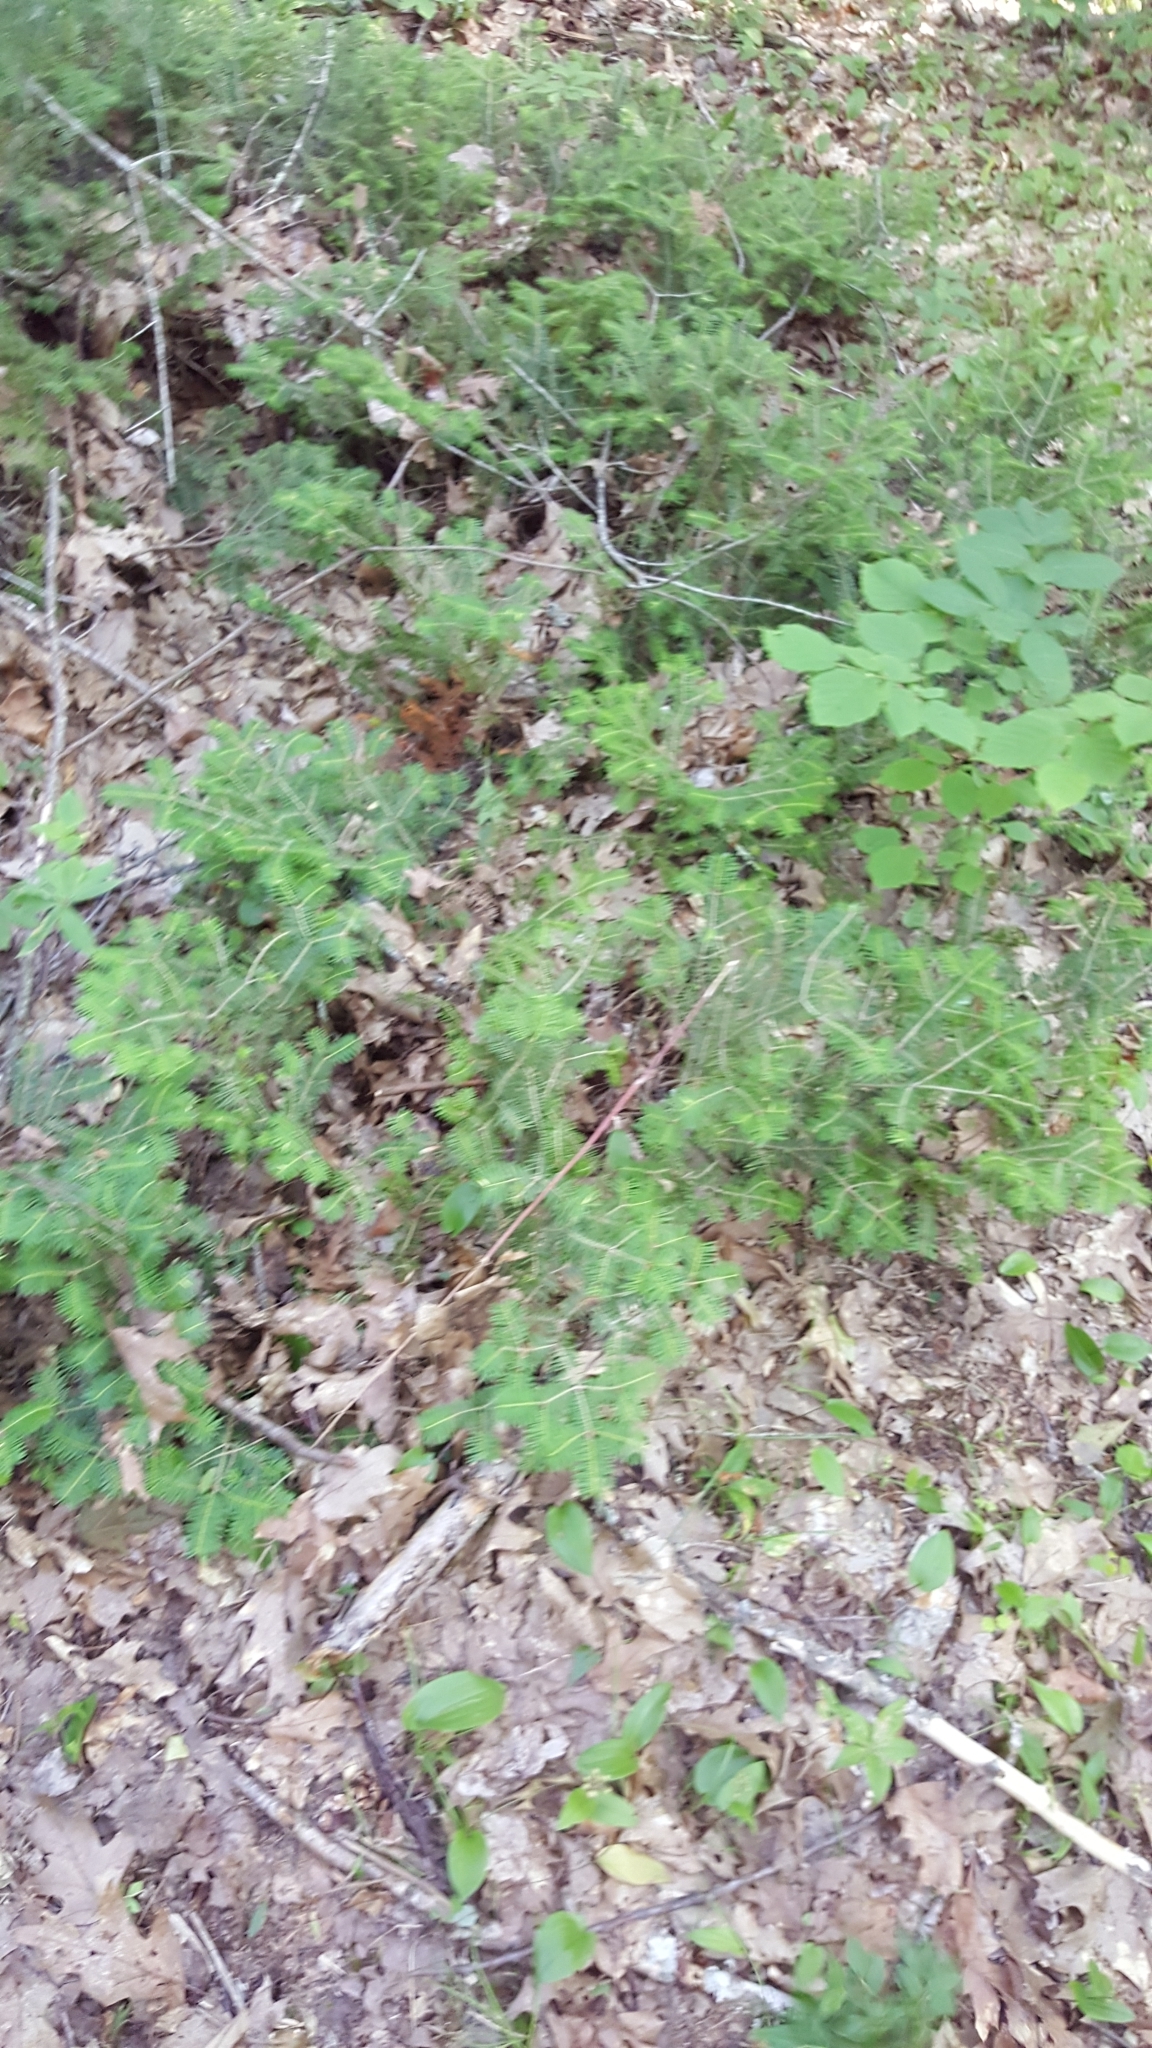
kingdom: Plantae
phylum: Tracheophyta
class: Pinopsida
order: Pinales
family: Pinaceae
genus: Abies
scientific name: Abies balsamea
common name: Balsam fir
